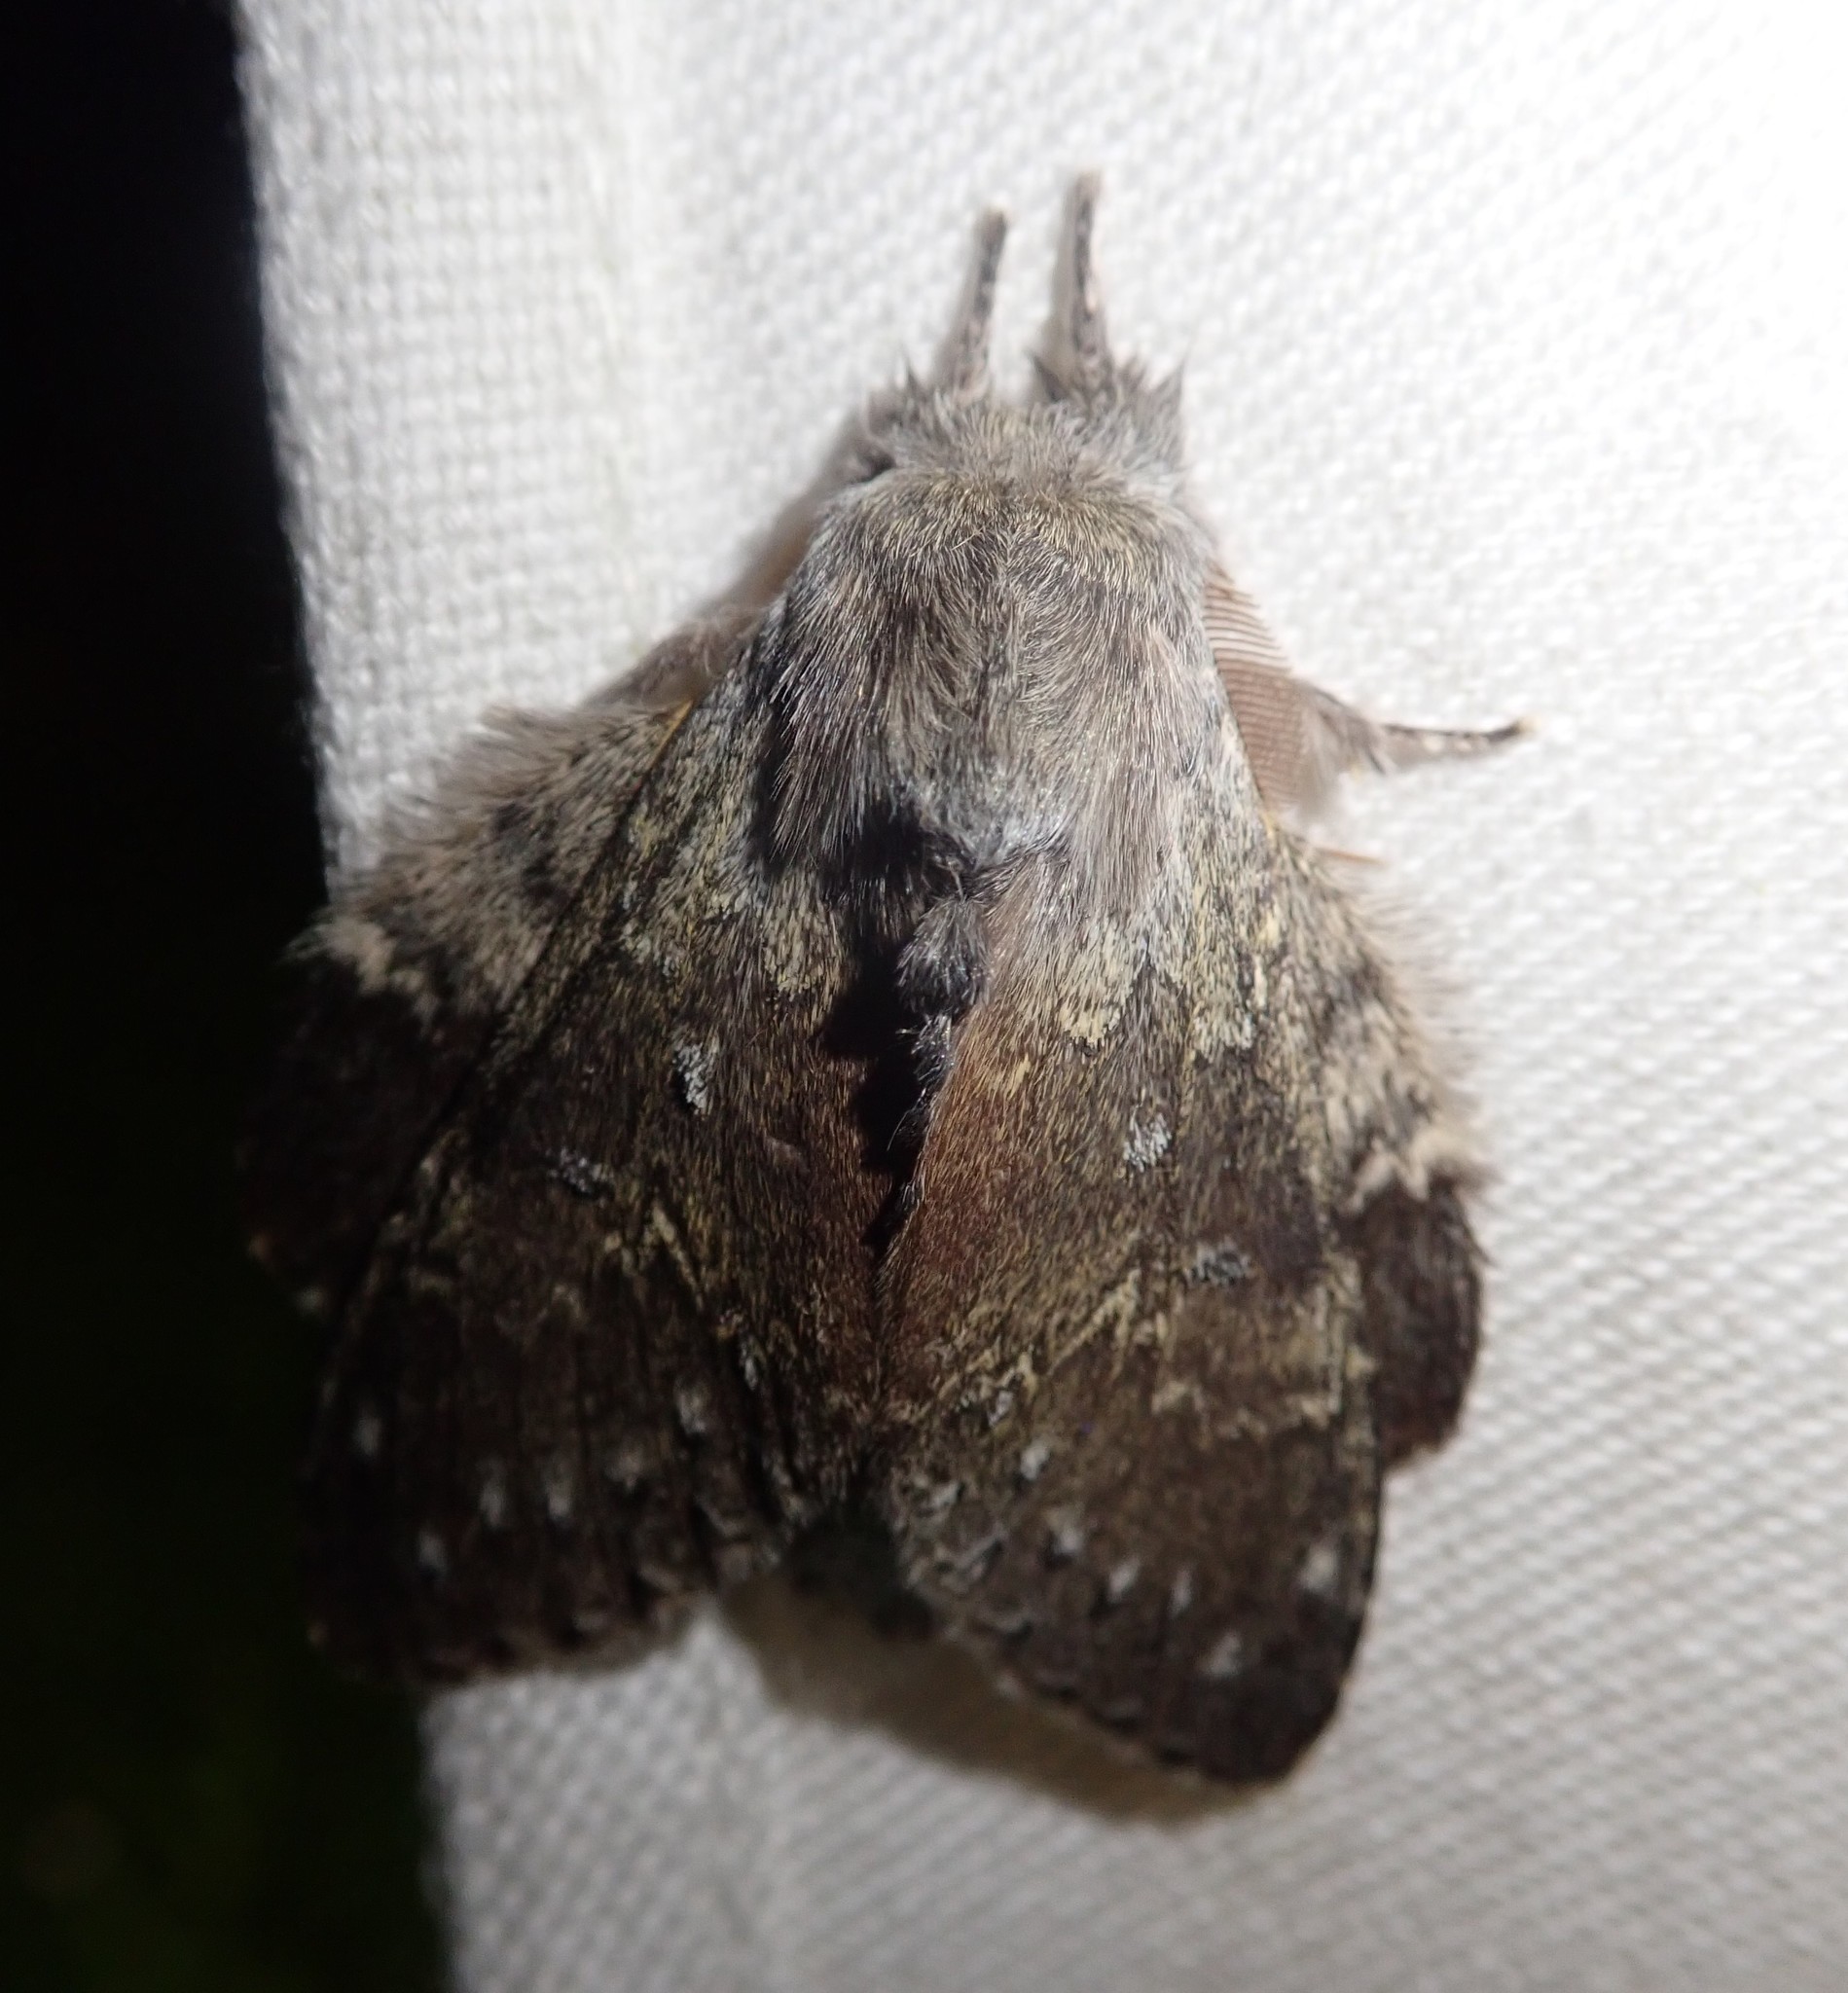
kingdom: Animalia
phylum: Arthropoda
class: Insecta
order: Lepidoptera
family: Notodontidae
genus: Stauropus
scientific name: Stauropus fagi
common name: Lobster moth
